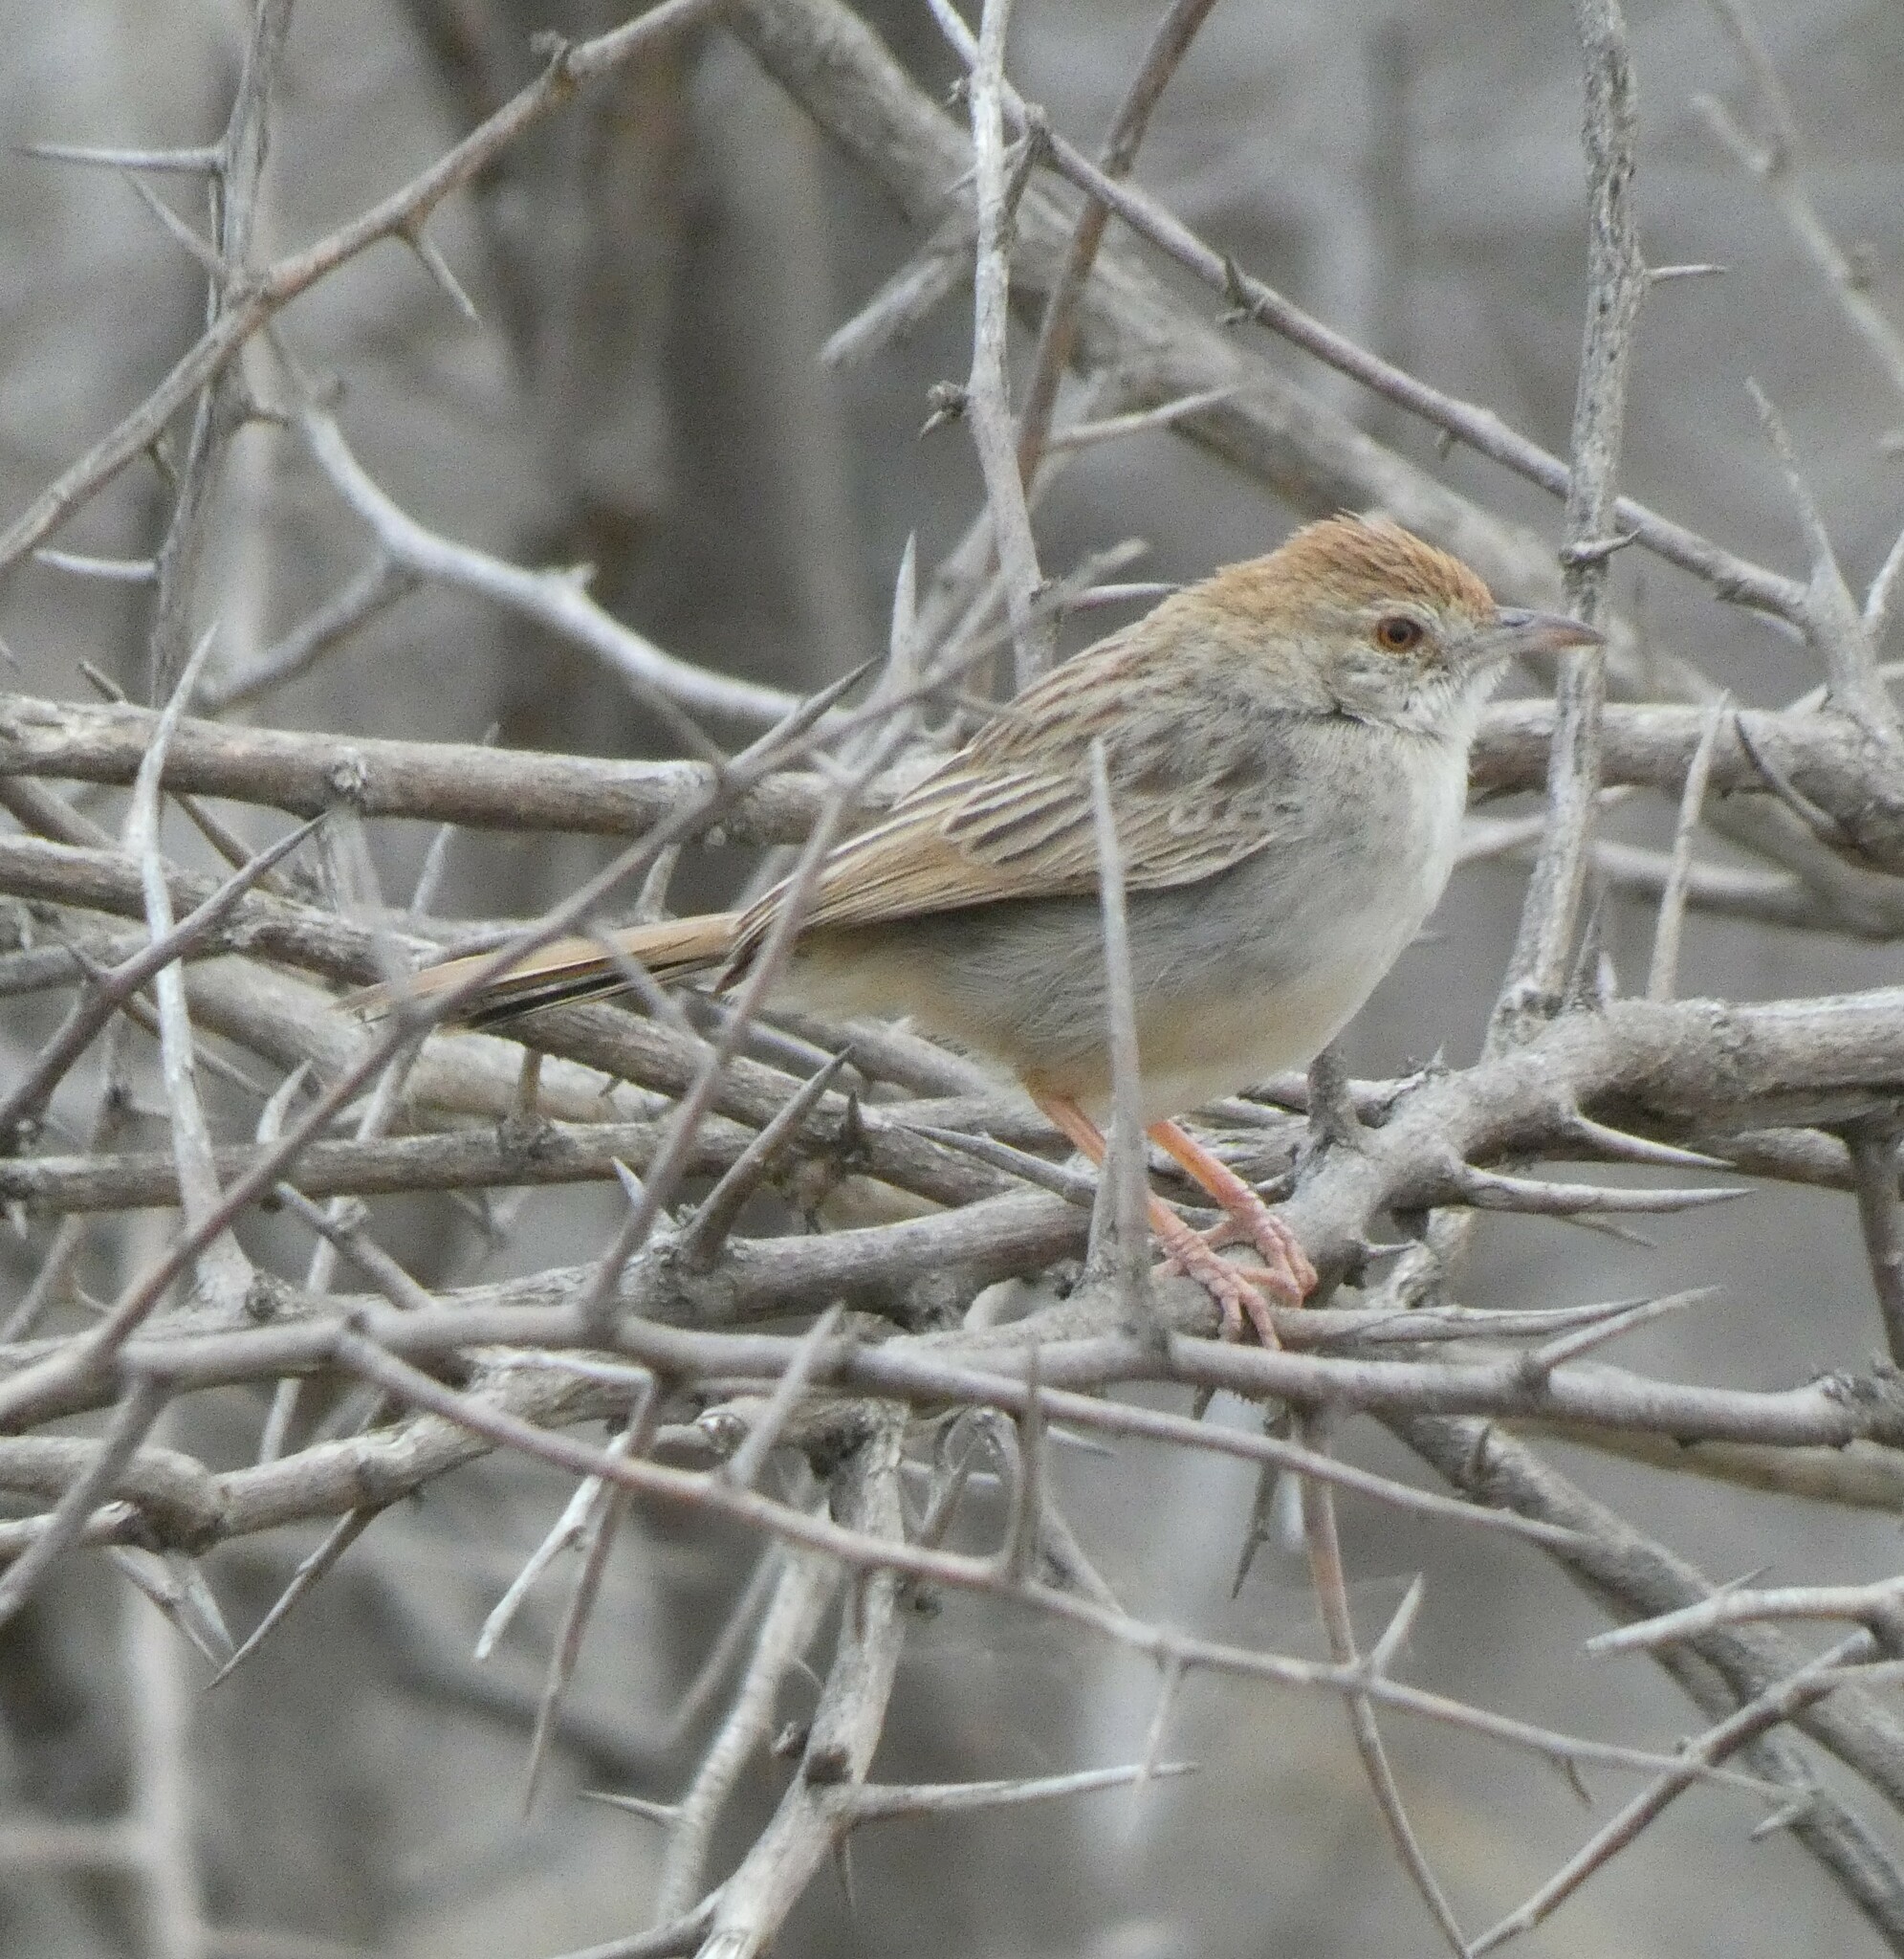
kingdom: Animalia
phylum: Chordata
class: Aves
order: Passeriformes
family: Cisticolidae
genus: Cisticola
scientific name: Cisticola chiniana
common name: Rattling cisticola
